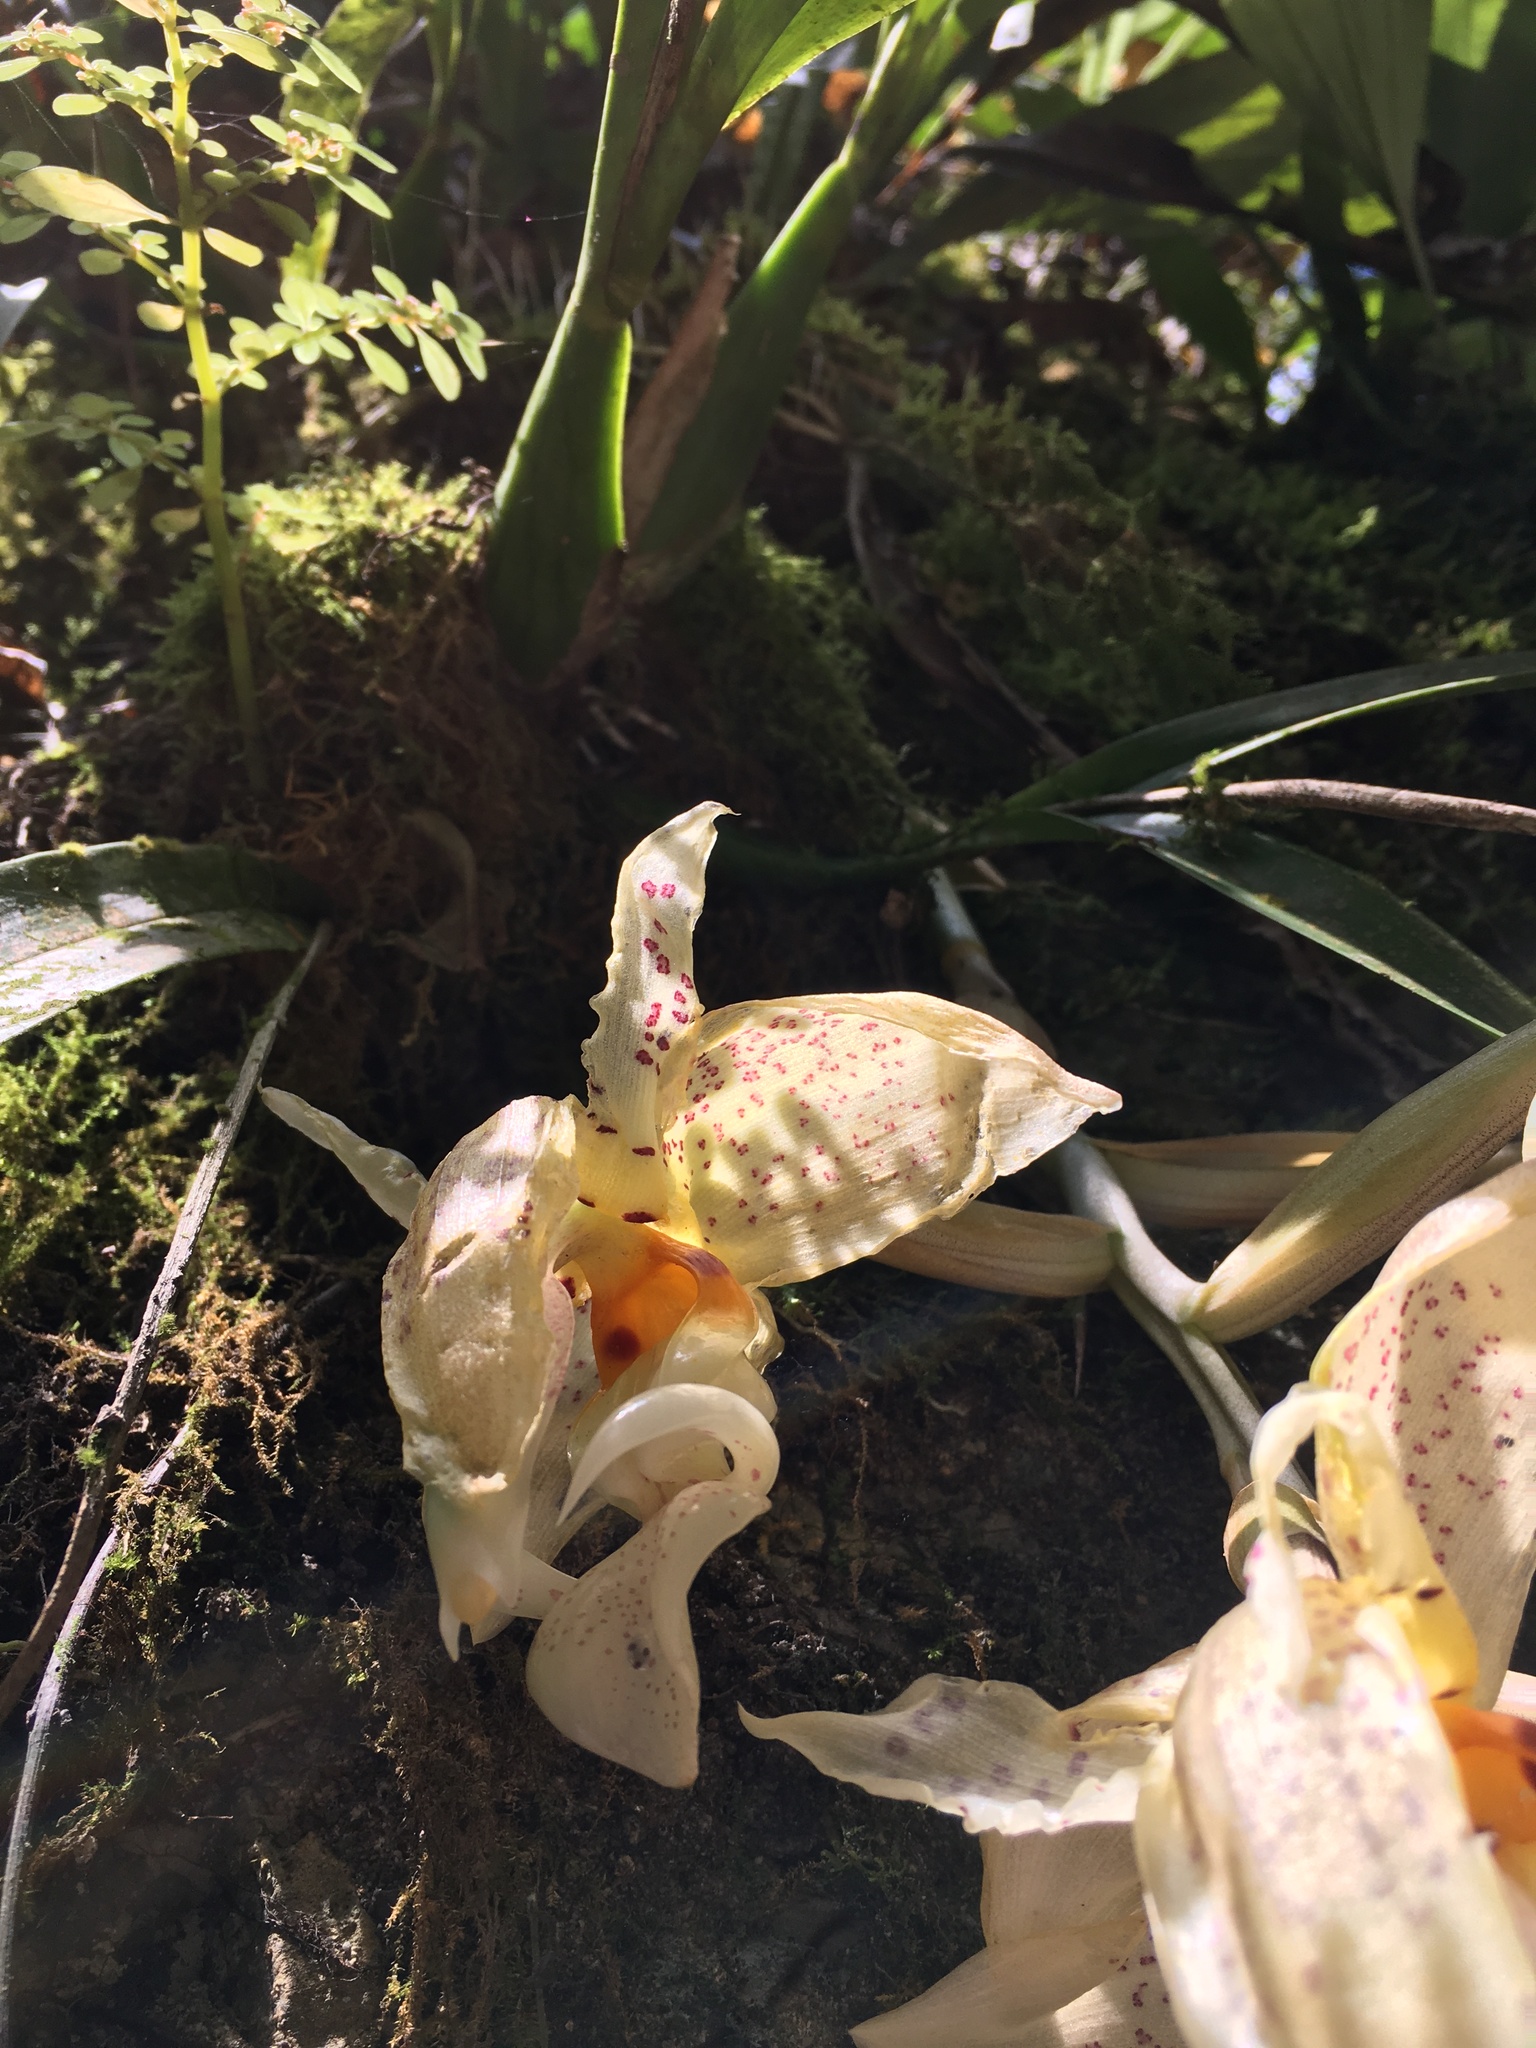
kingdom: Plantae
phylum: Tracheophyta
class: Liliopsida
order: Asparagales
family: Orchidaceae
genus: Stanhopea
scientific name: Stanhopea ruckeri
